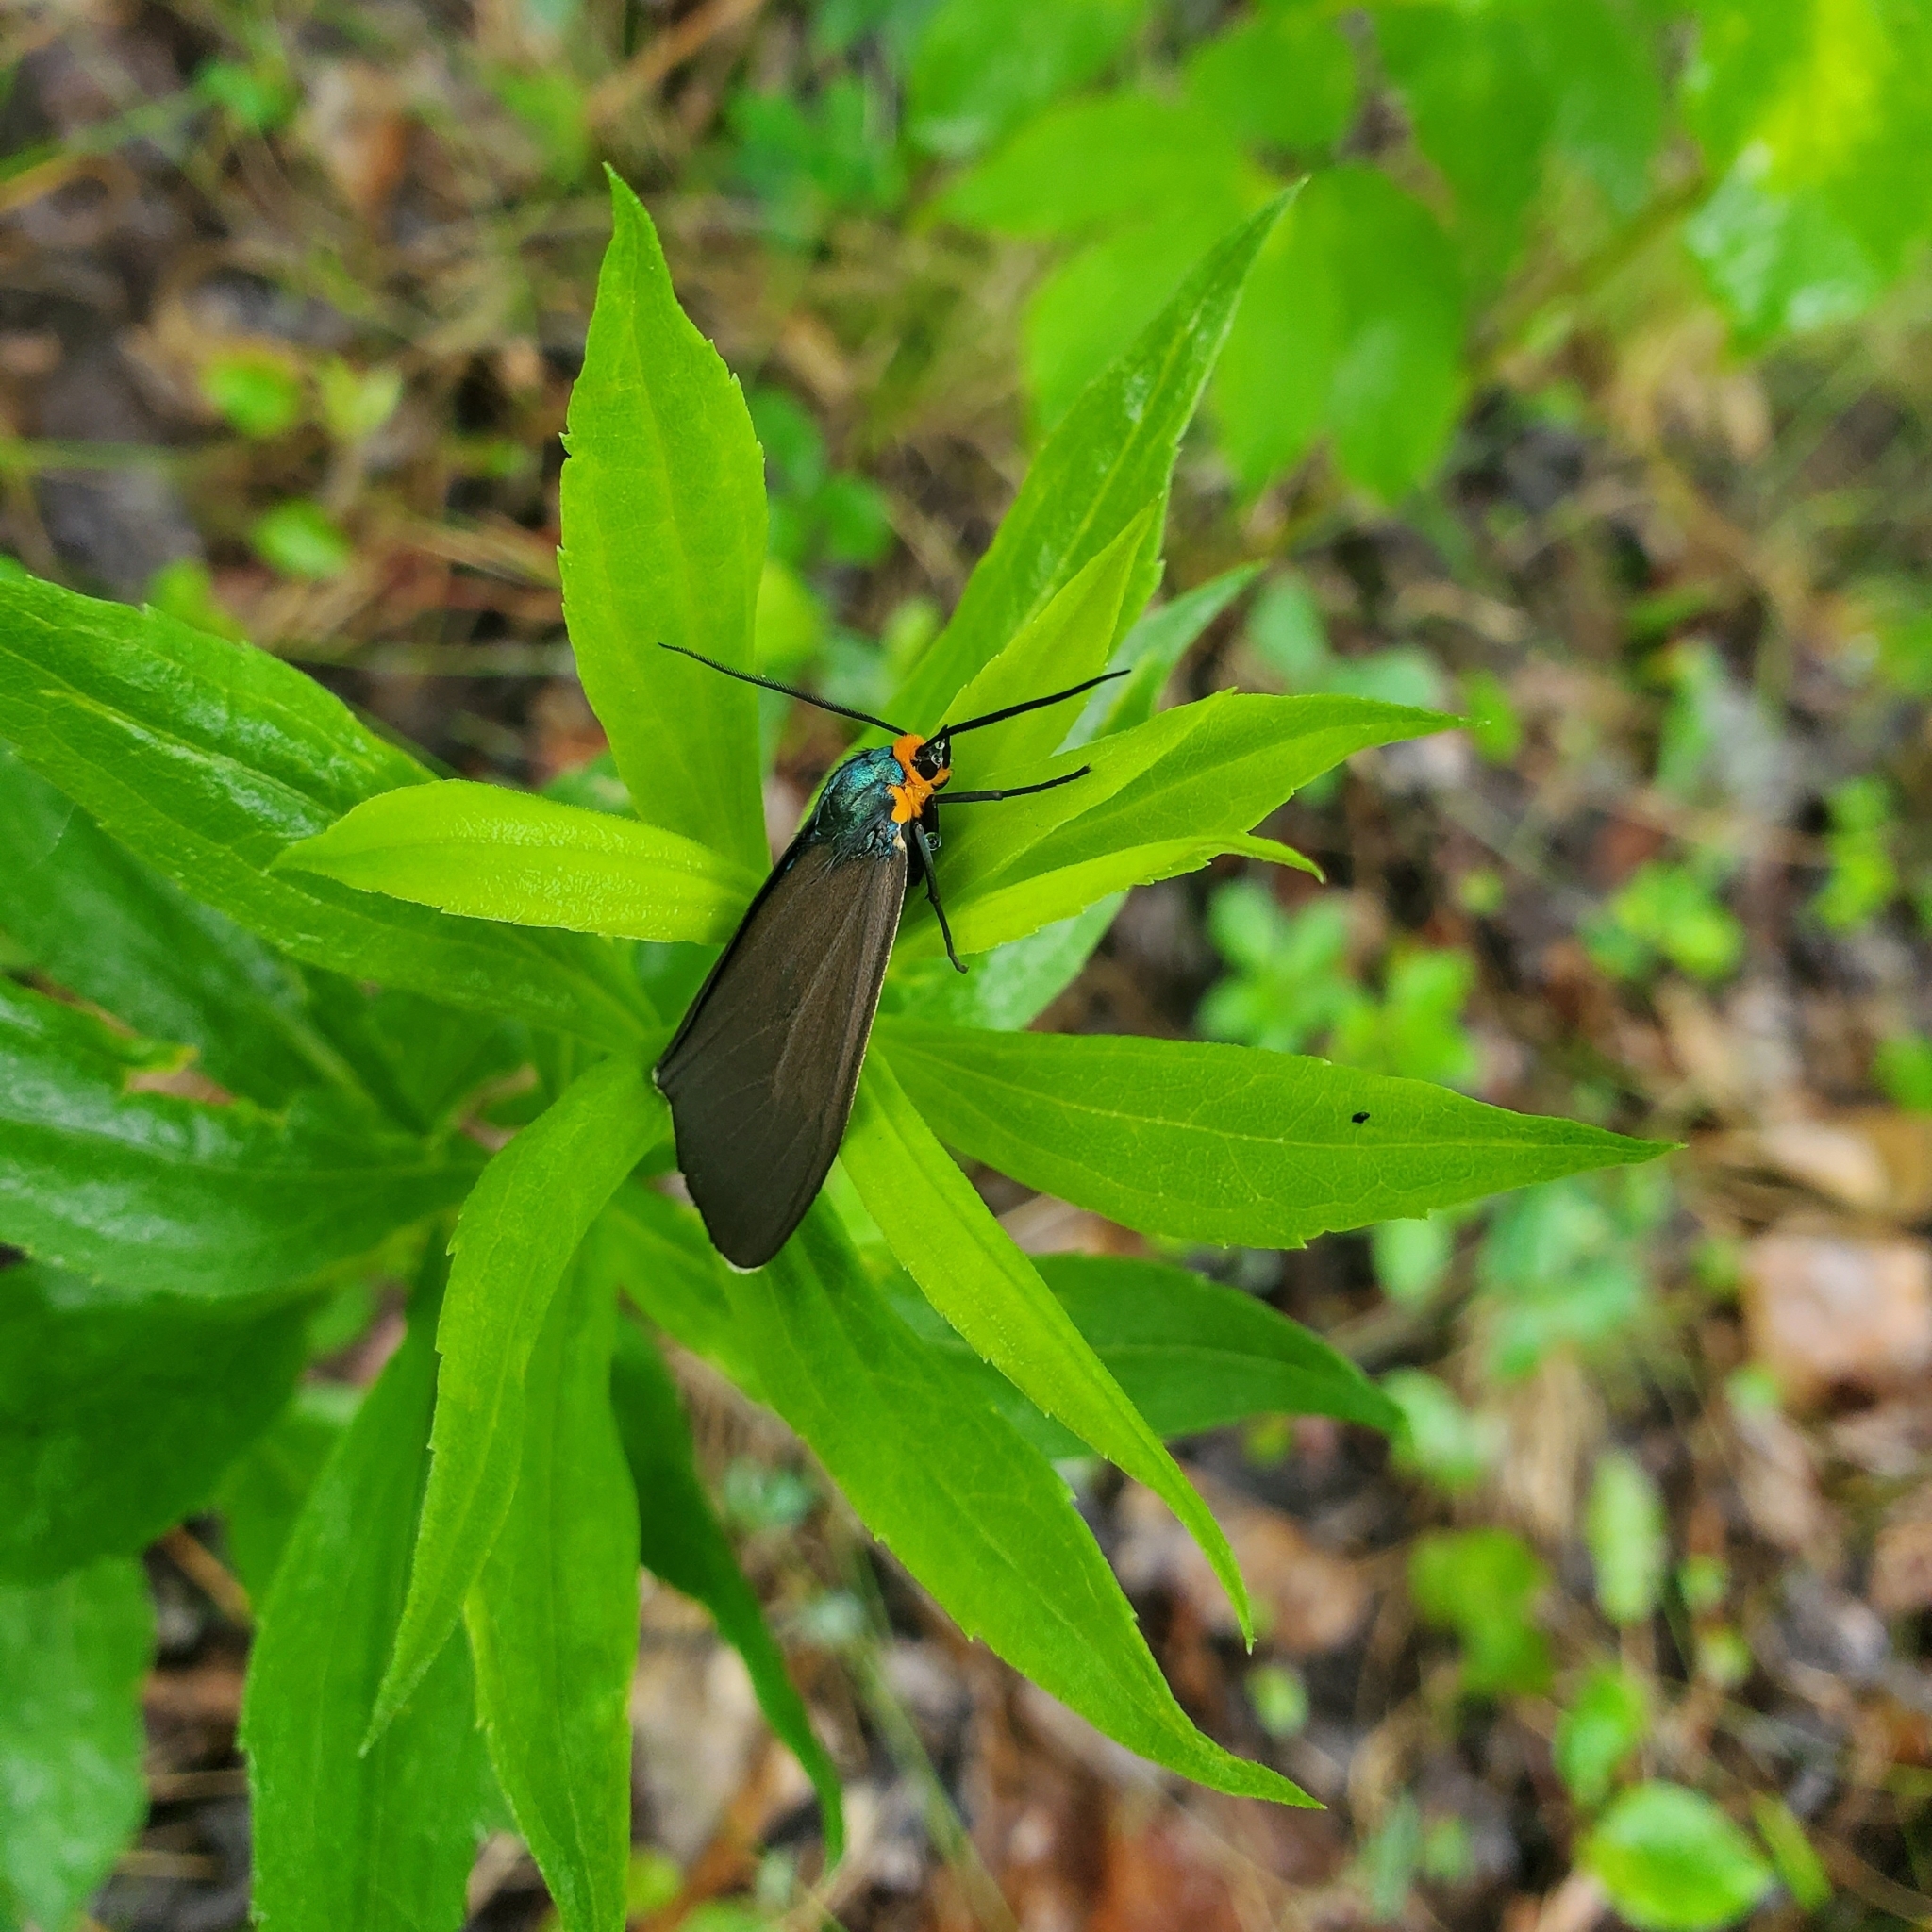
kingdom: Animalia
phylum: Arthropoda
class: Insecta
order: Lepidoptera
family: Erebidae
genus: Ctenucha
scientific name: Ctenucha virginica
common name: Virginia ctenucha moth
